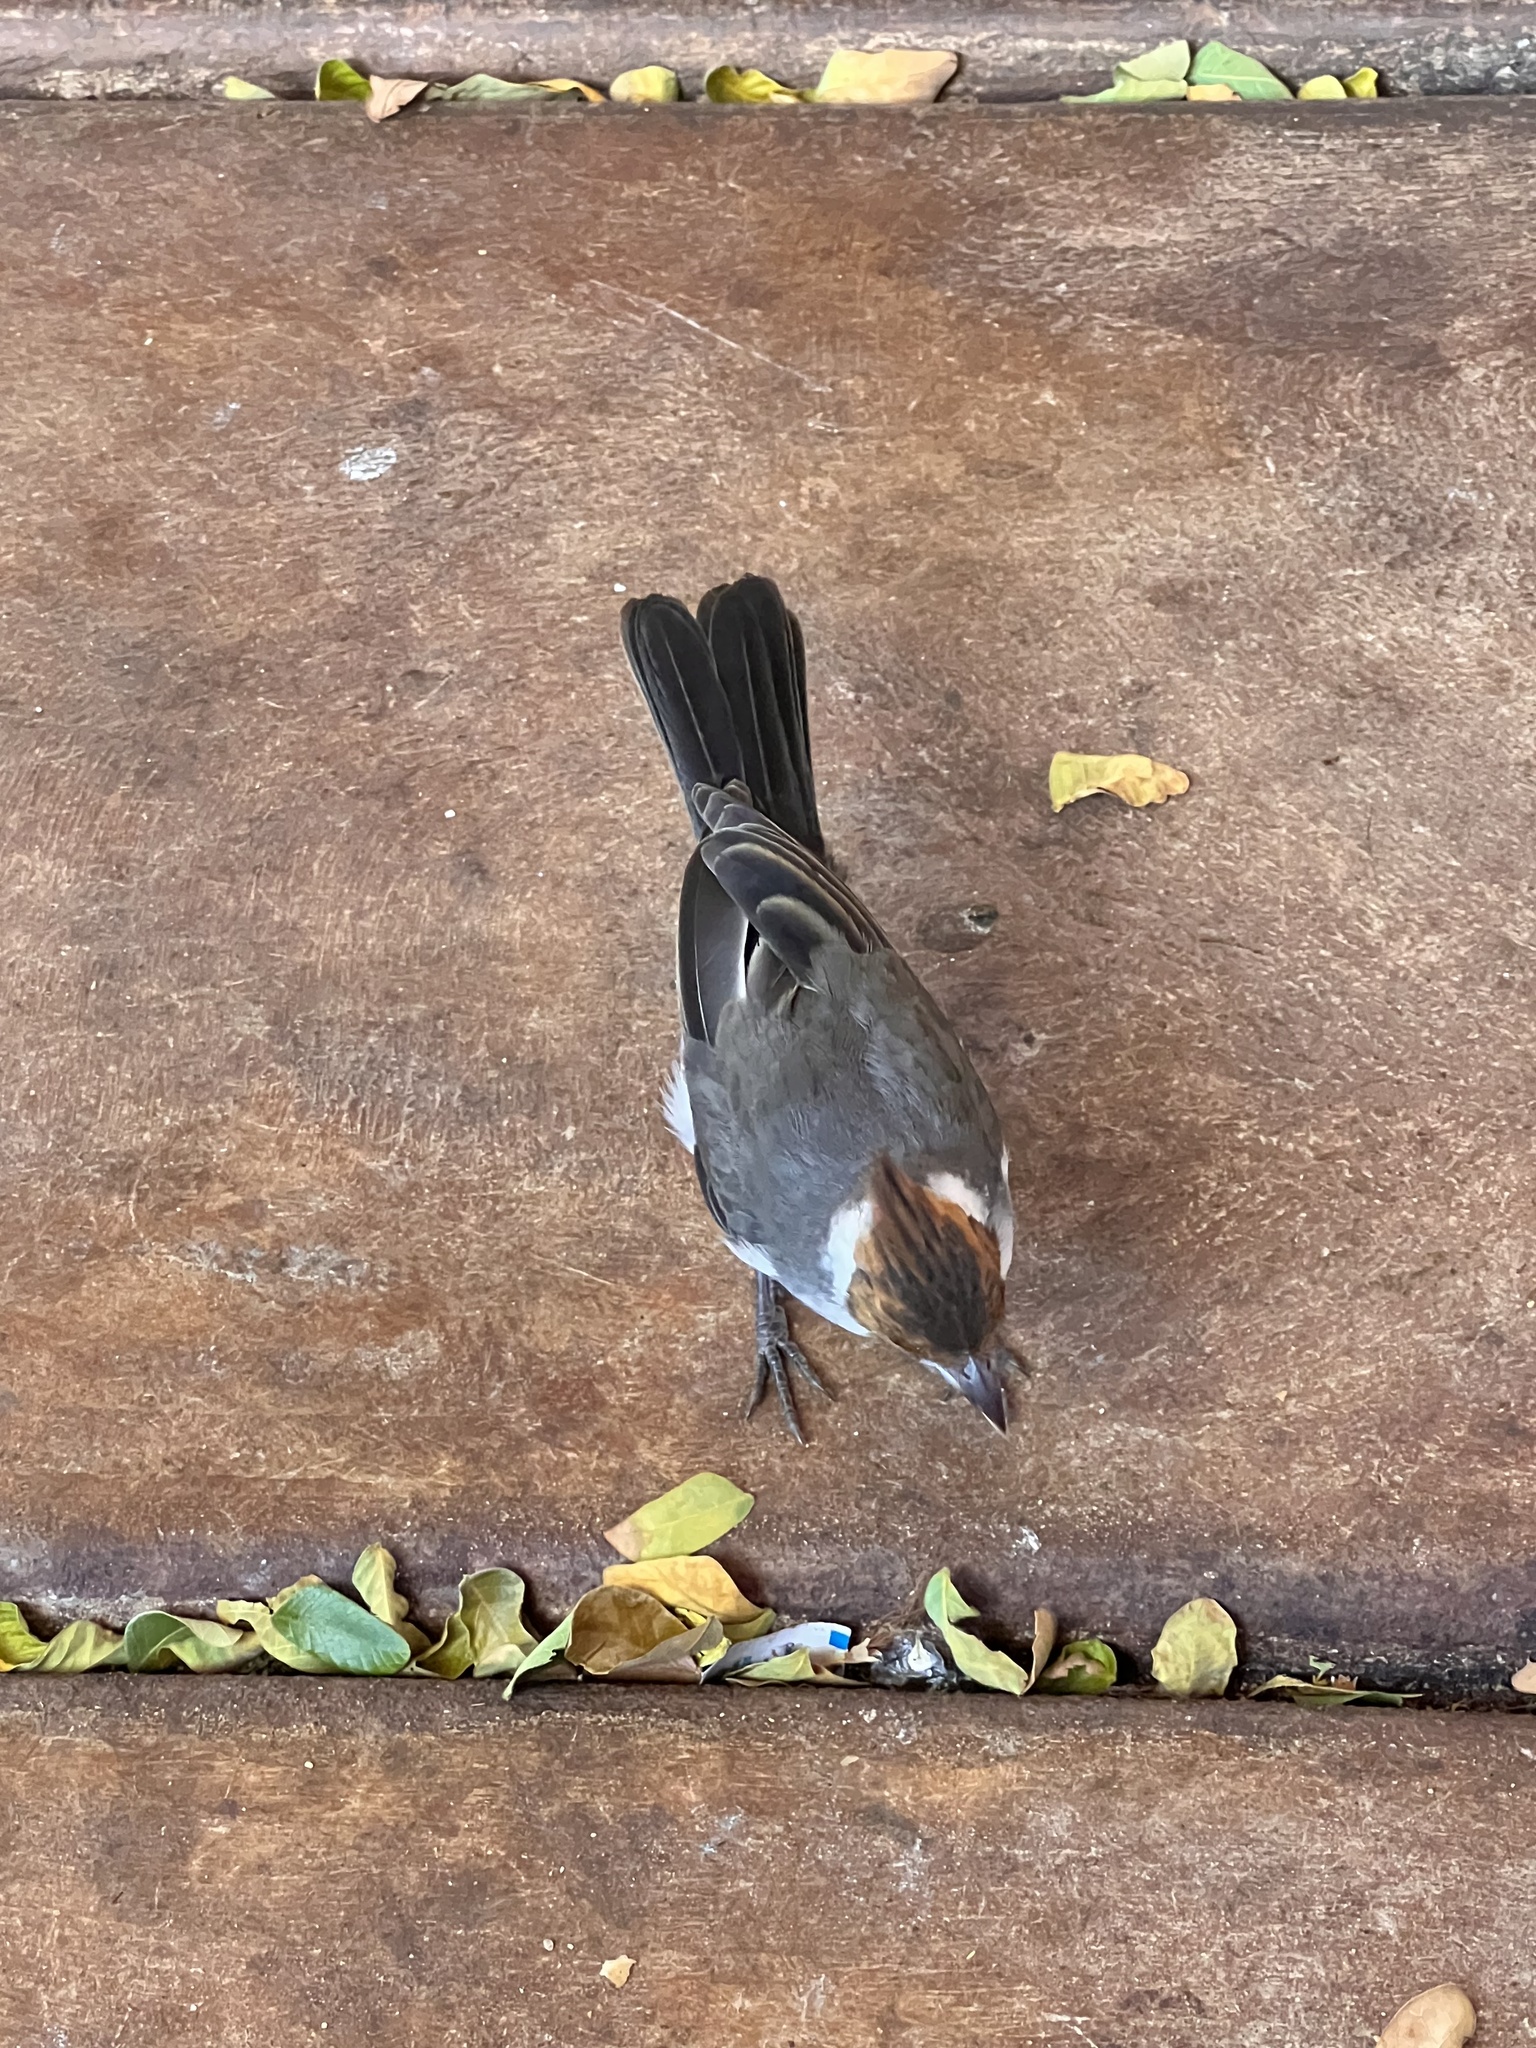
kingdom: Animalia
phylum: Chordata
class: Aves
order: Passeriformes
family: Thraupidae
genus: Paroaria
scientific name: Paroaria coronata
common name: Red-crested cardinal
